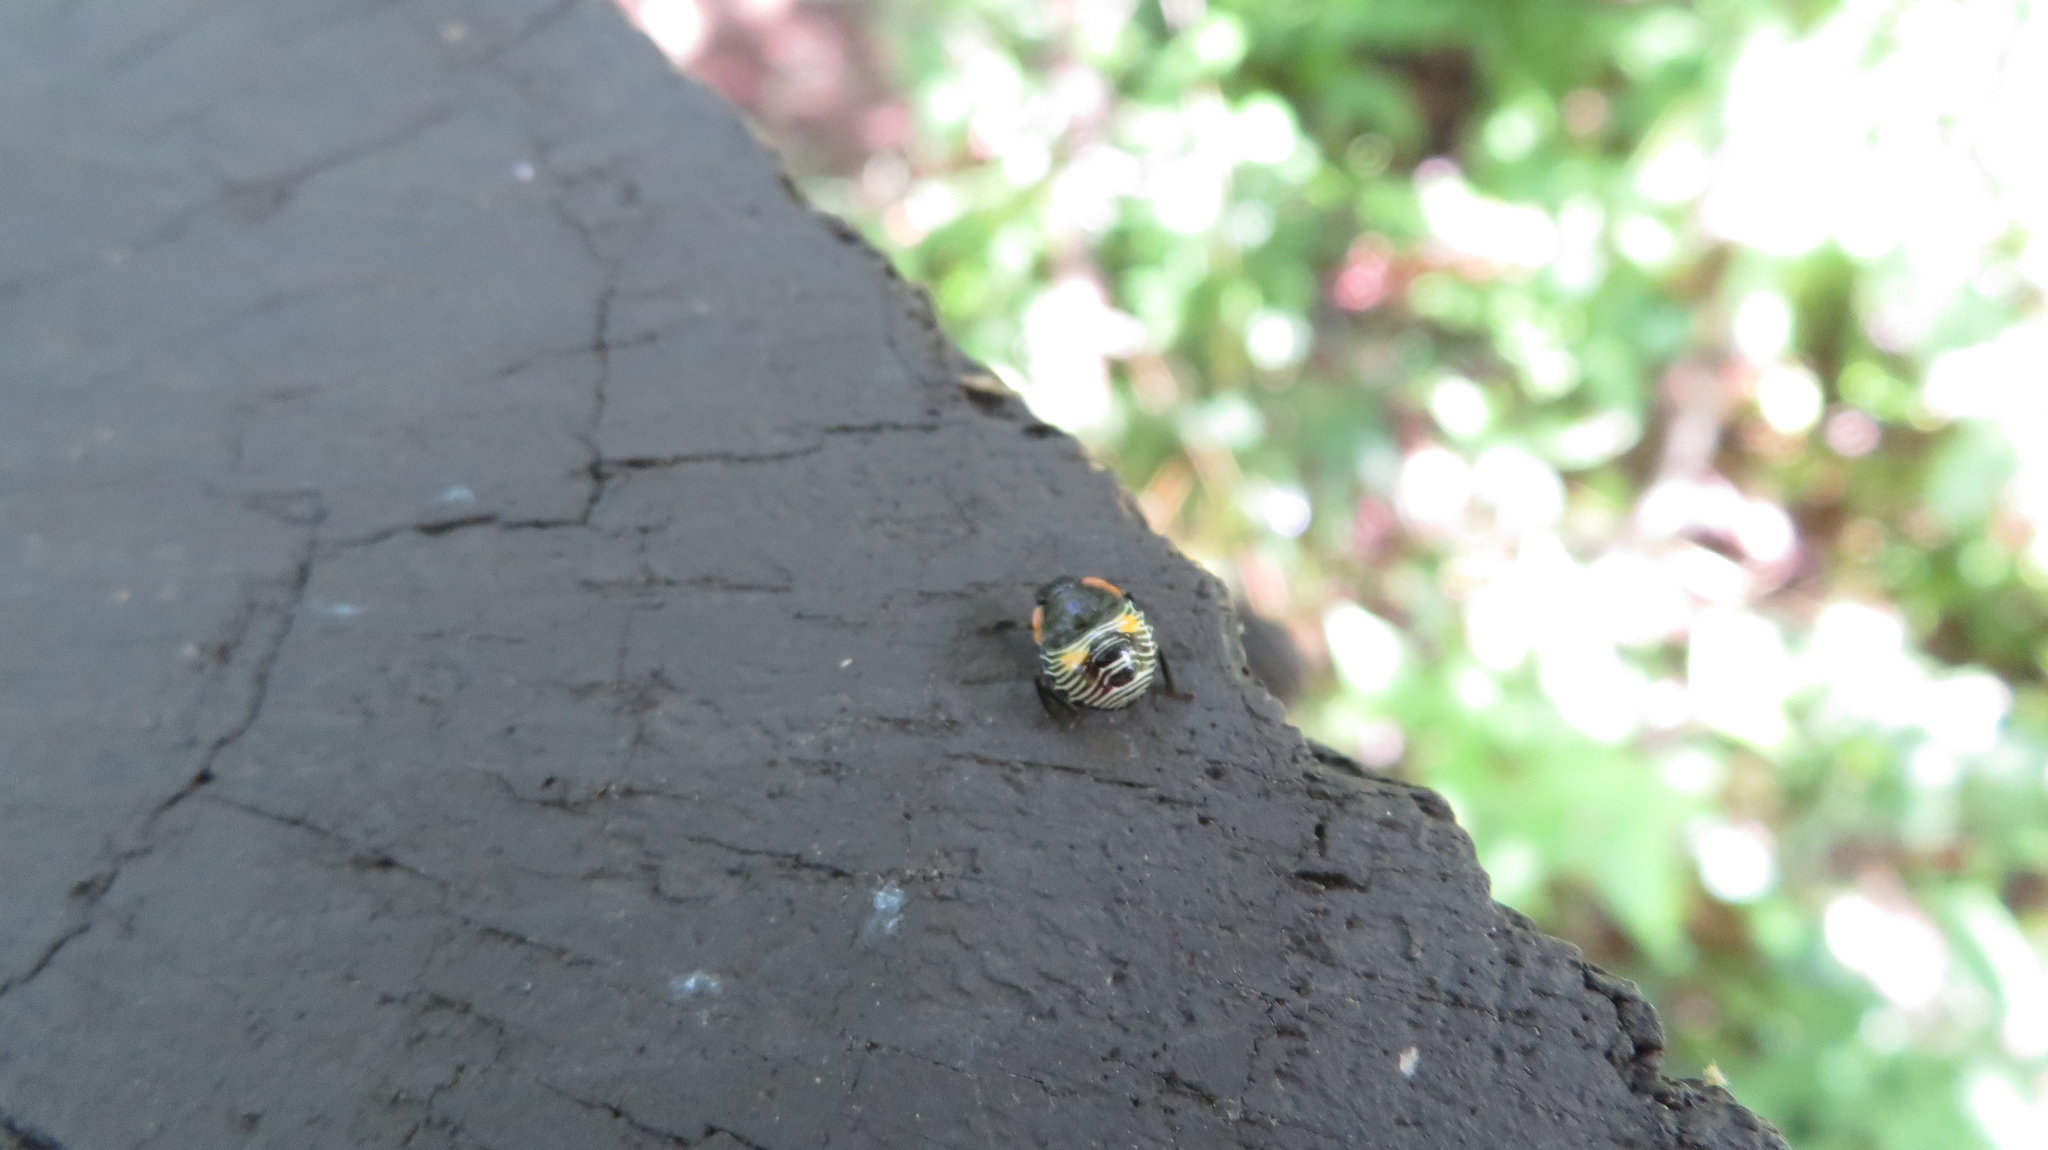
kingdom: Animalia
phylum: Arthropoda
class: Insecta
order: Hemiptera
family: Pentatomidae
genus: Chinavia
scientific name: Chinavia hilaris
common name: Green stink bug
